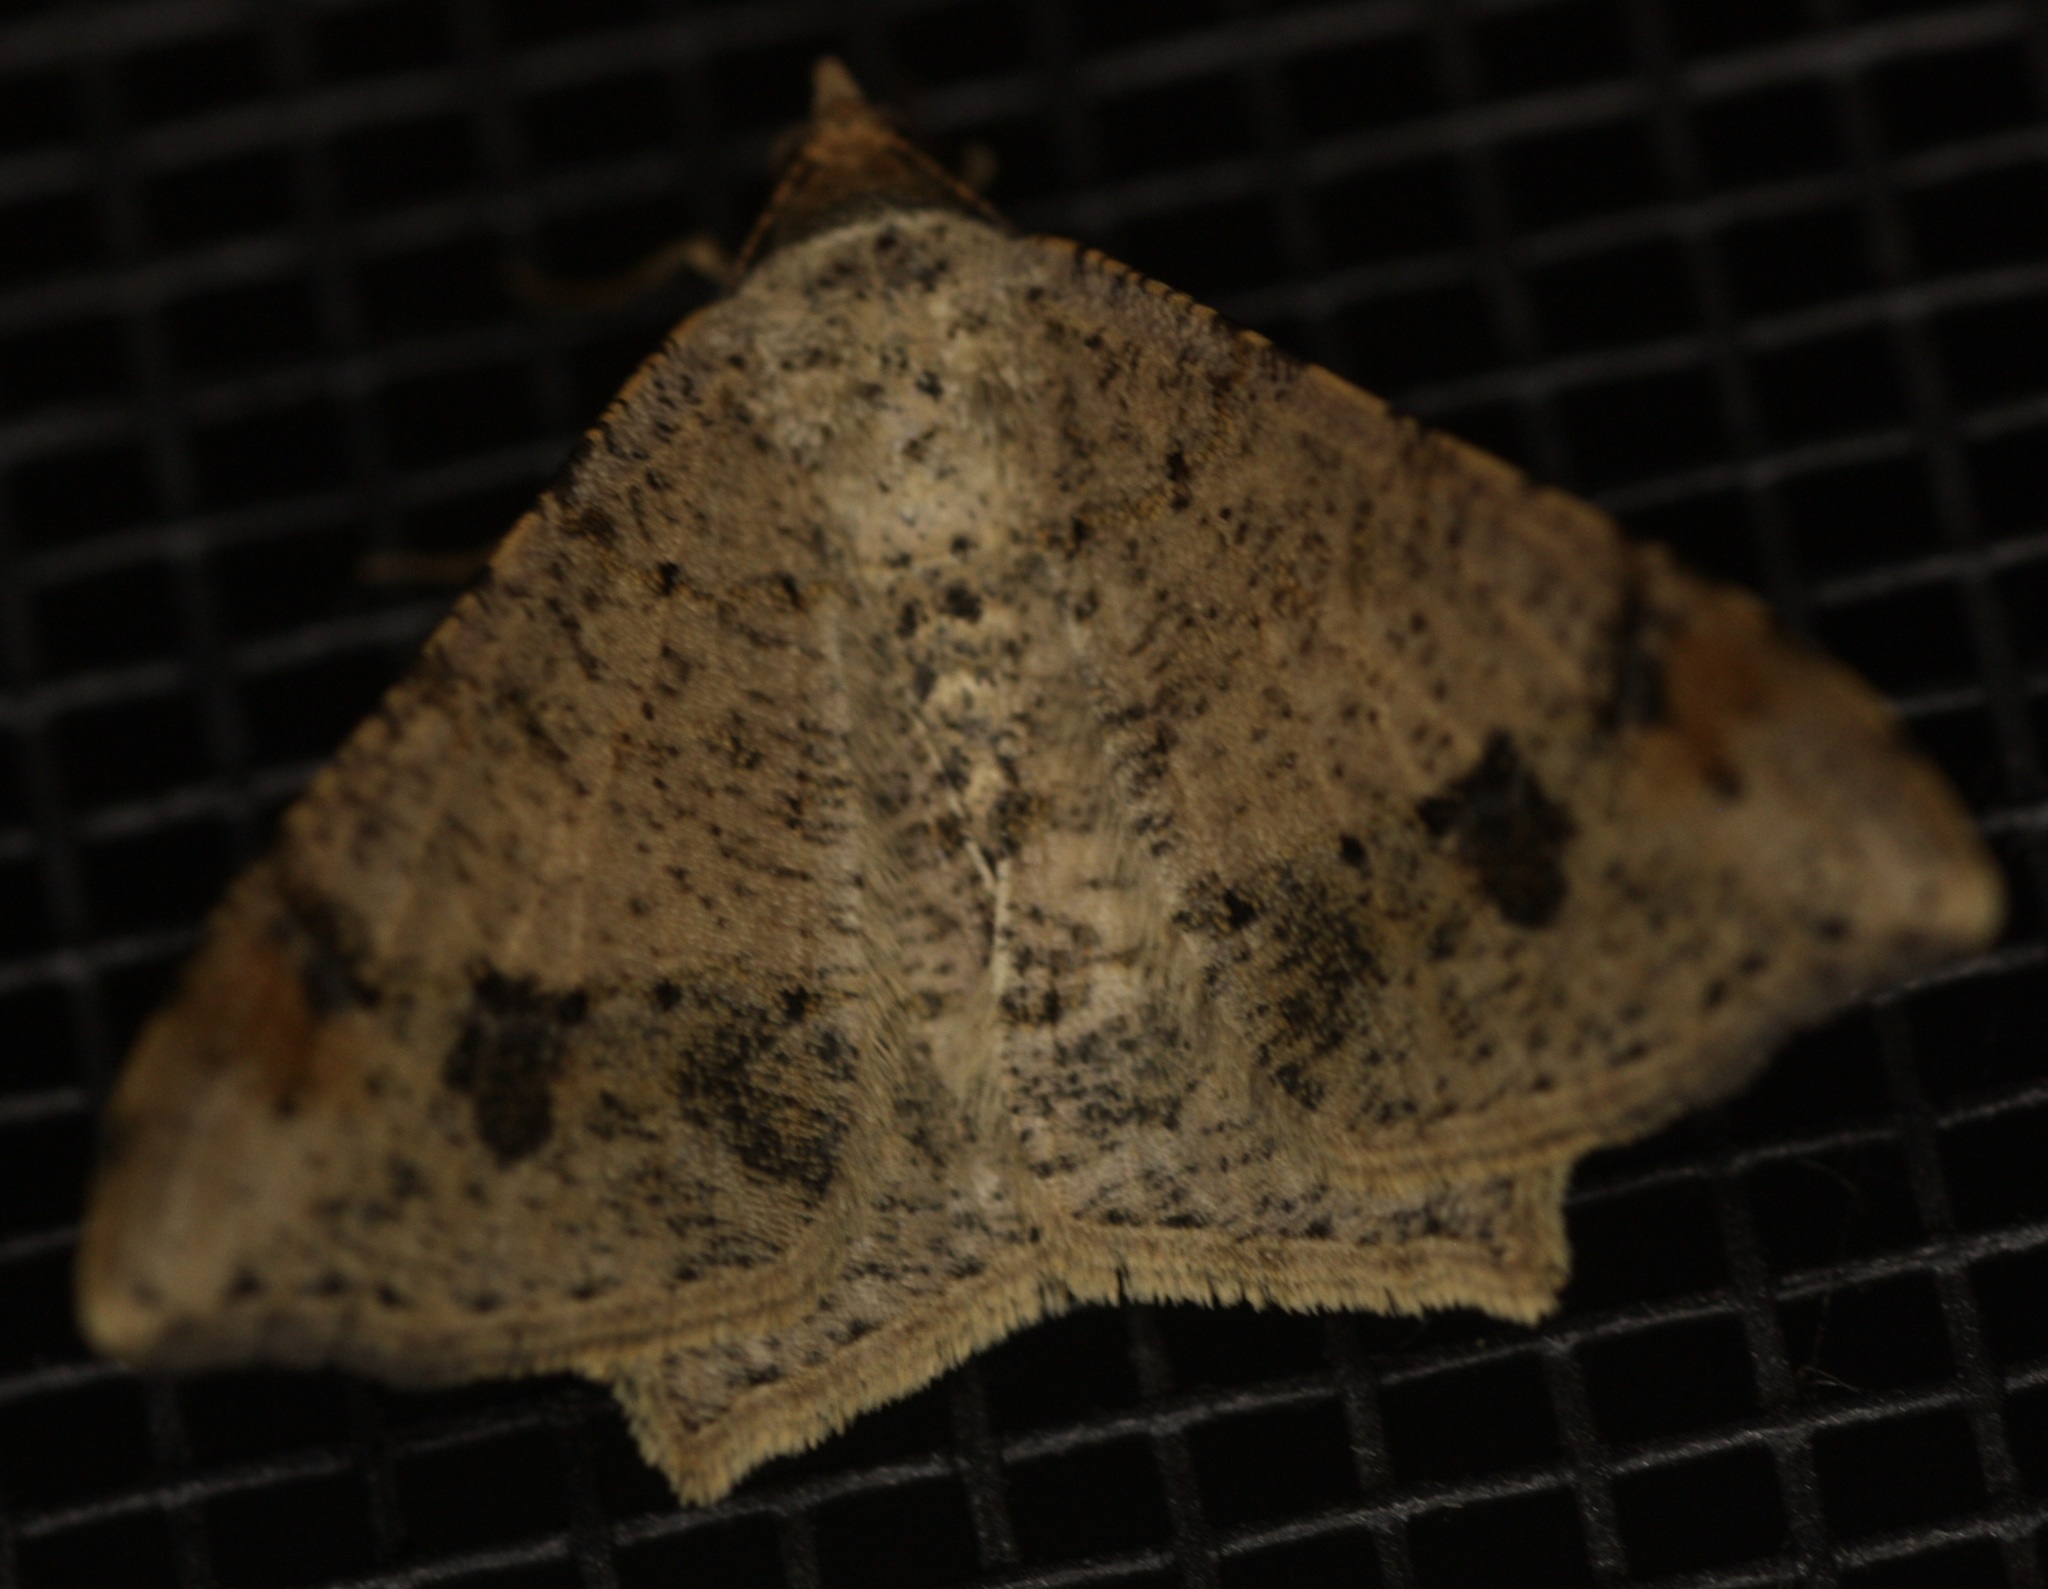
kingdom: Animalia
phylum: Arthropoda
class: Insecta
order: Lepidoptera
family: Geometridae
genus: Macaria
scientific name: Macaria abydata
